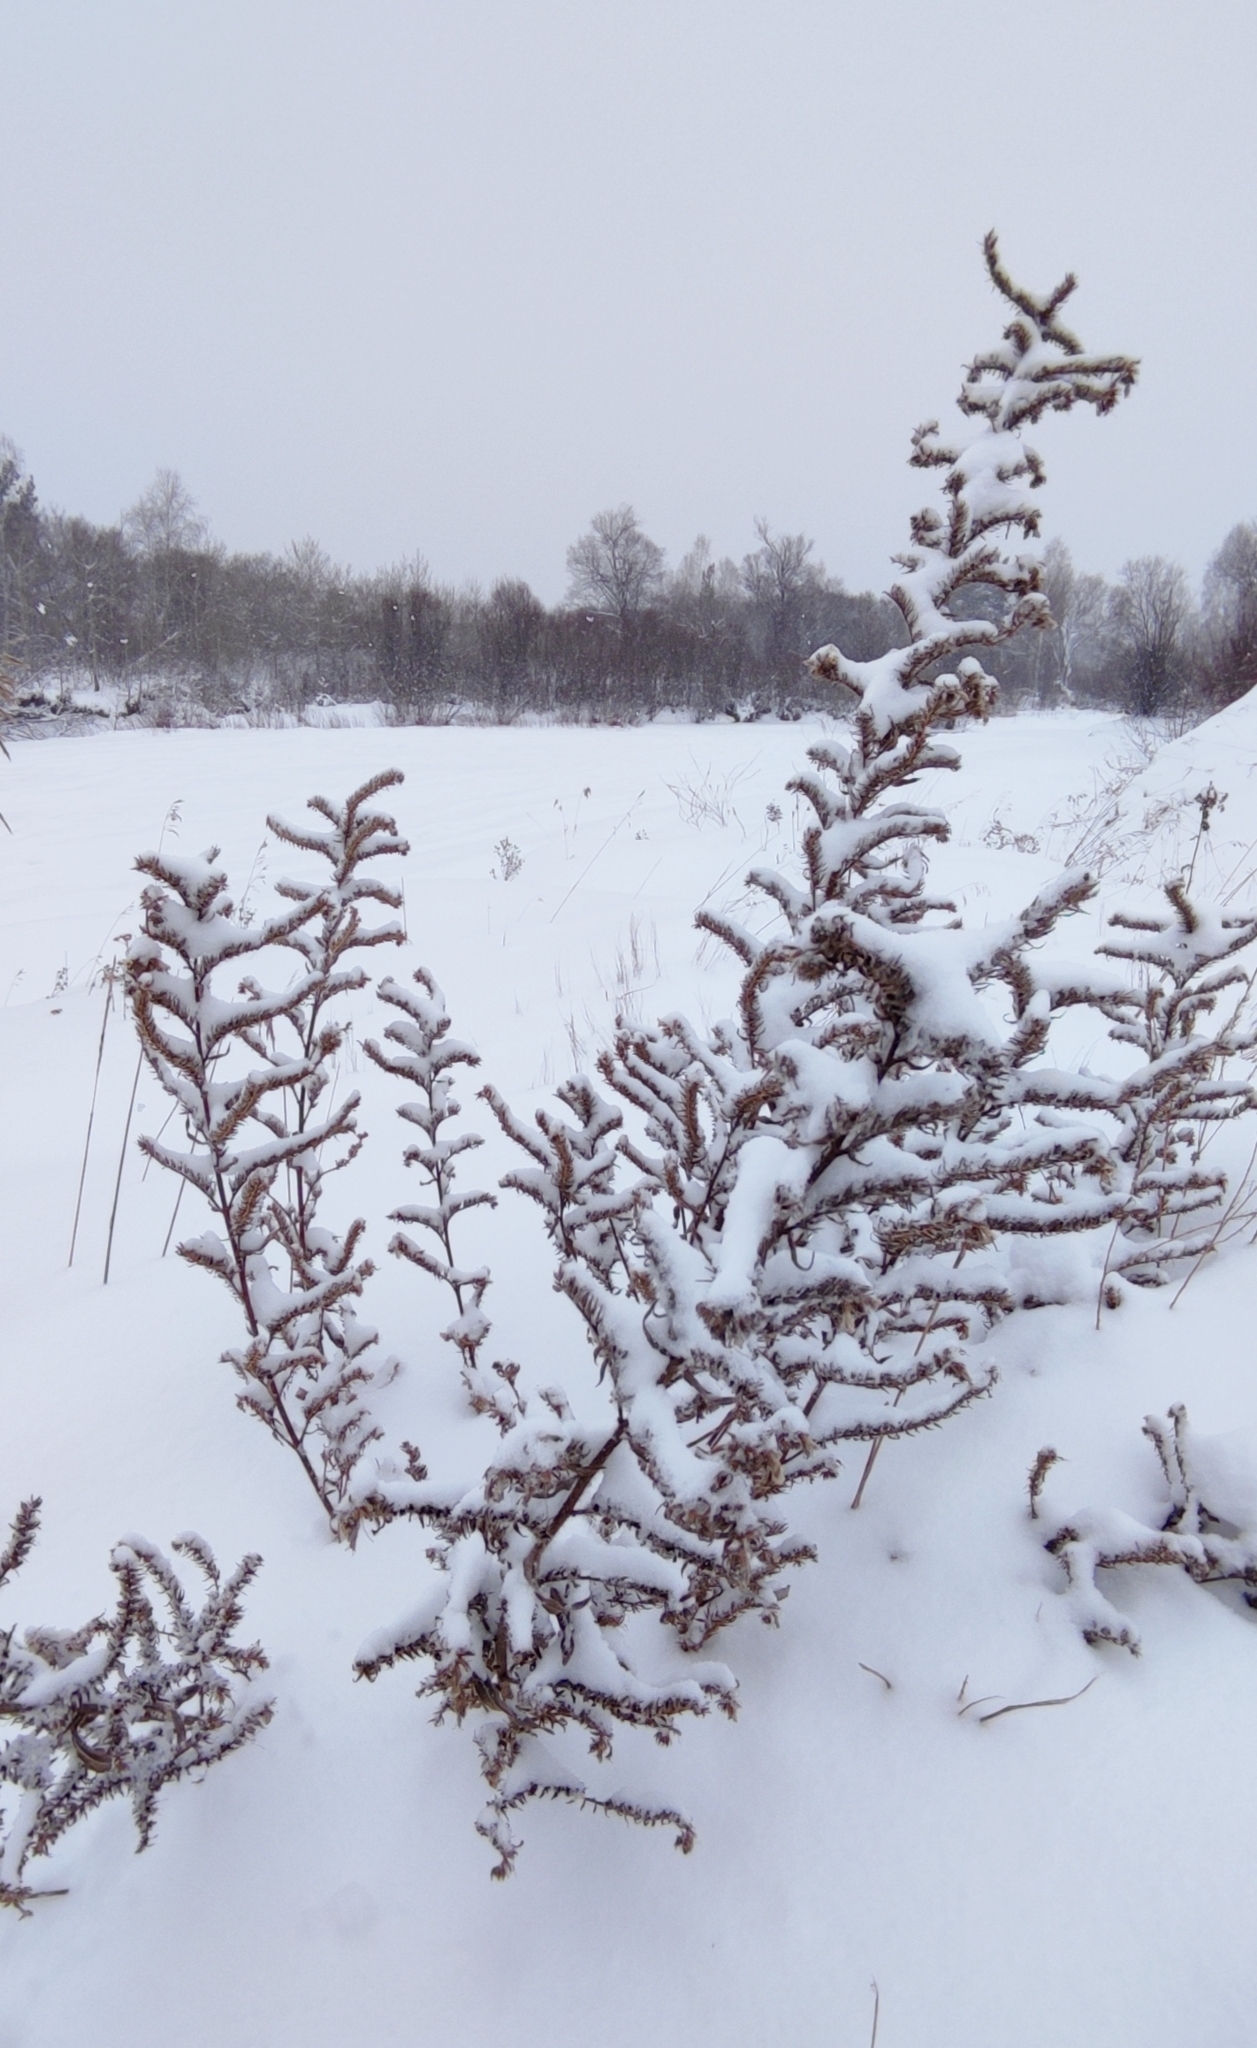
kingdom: Plantae
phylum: Tracheophyta
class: Magnoliopsida
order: Boraginales
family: Boraginaceae
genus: Echium
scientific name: Echium vulgare
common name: Common viper's bugloss
